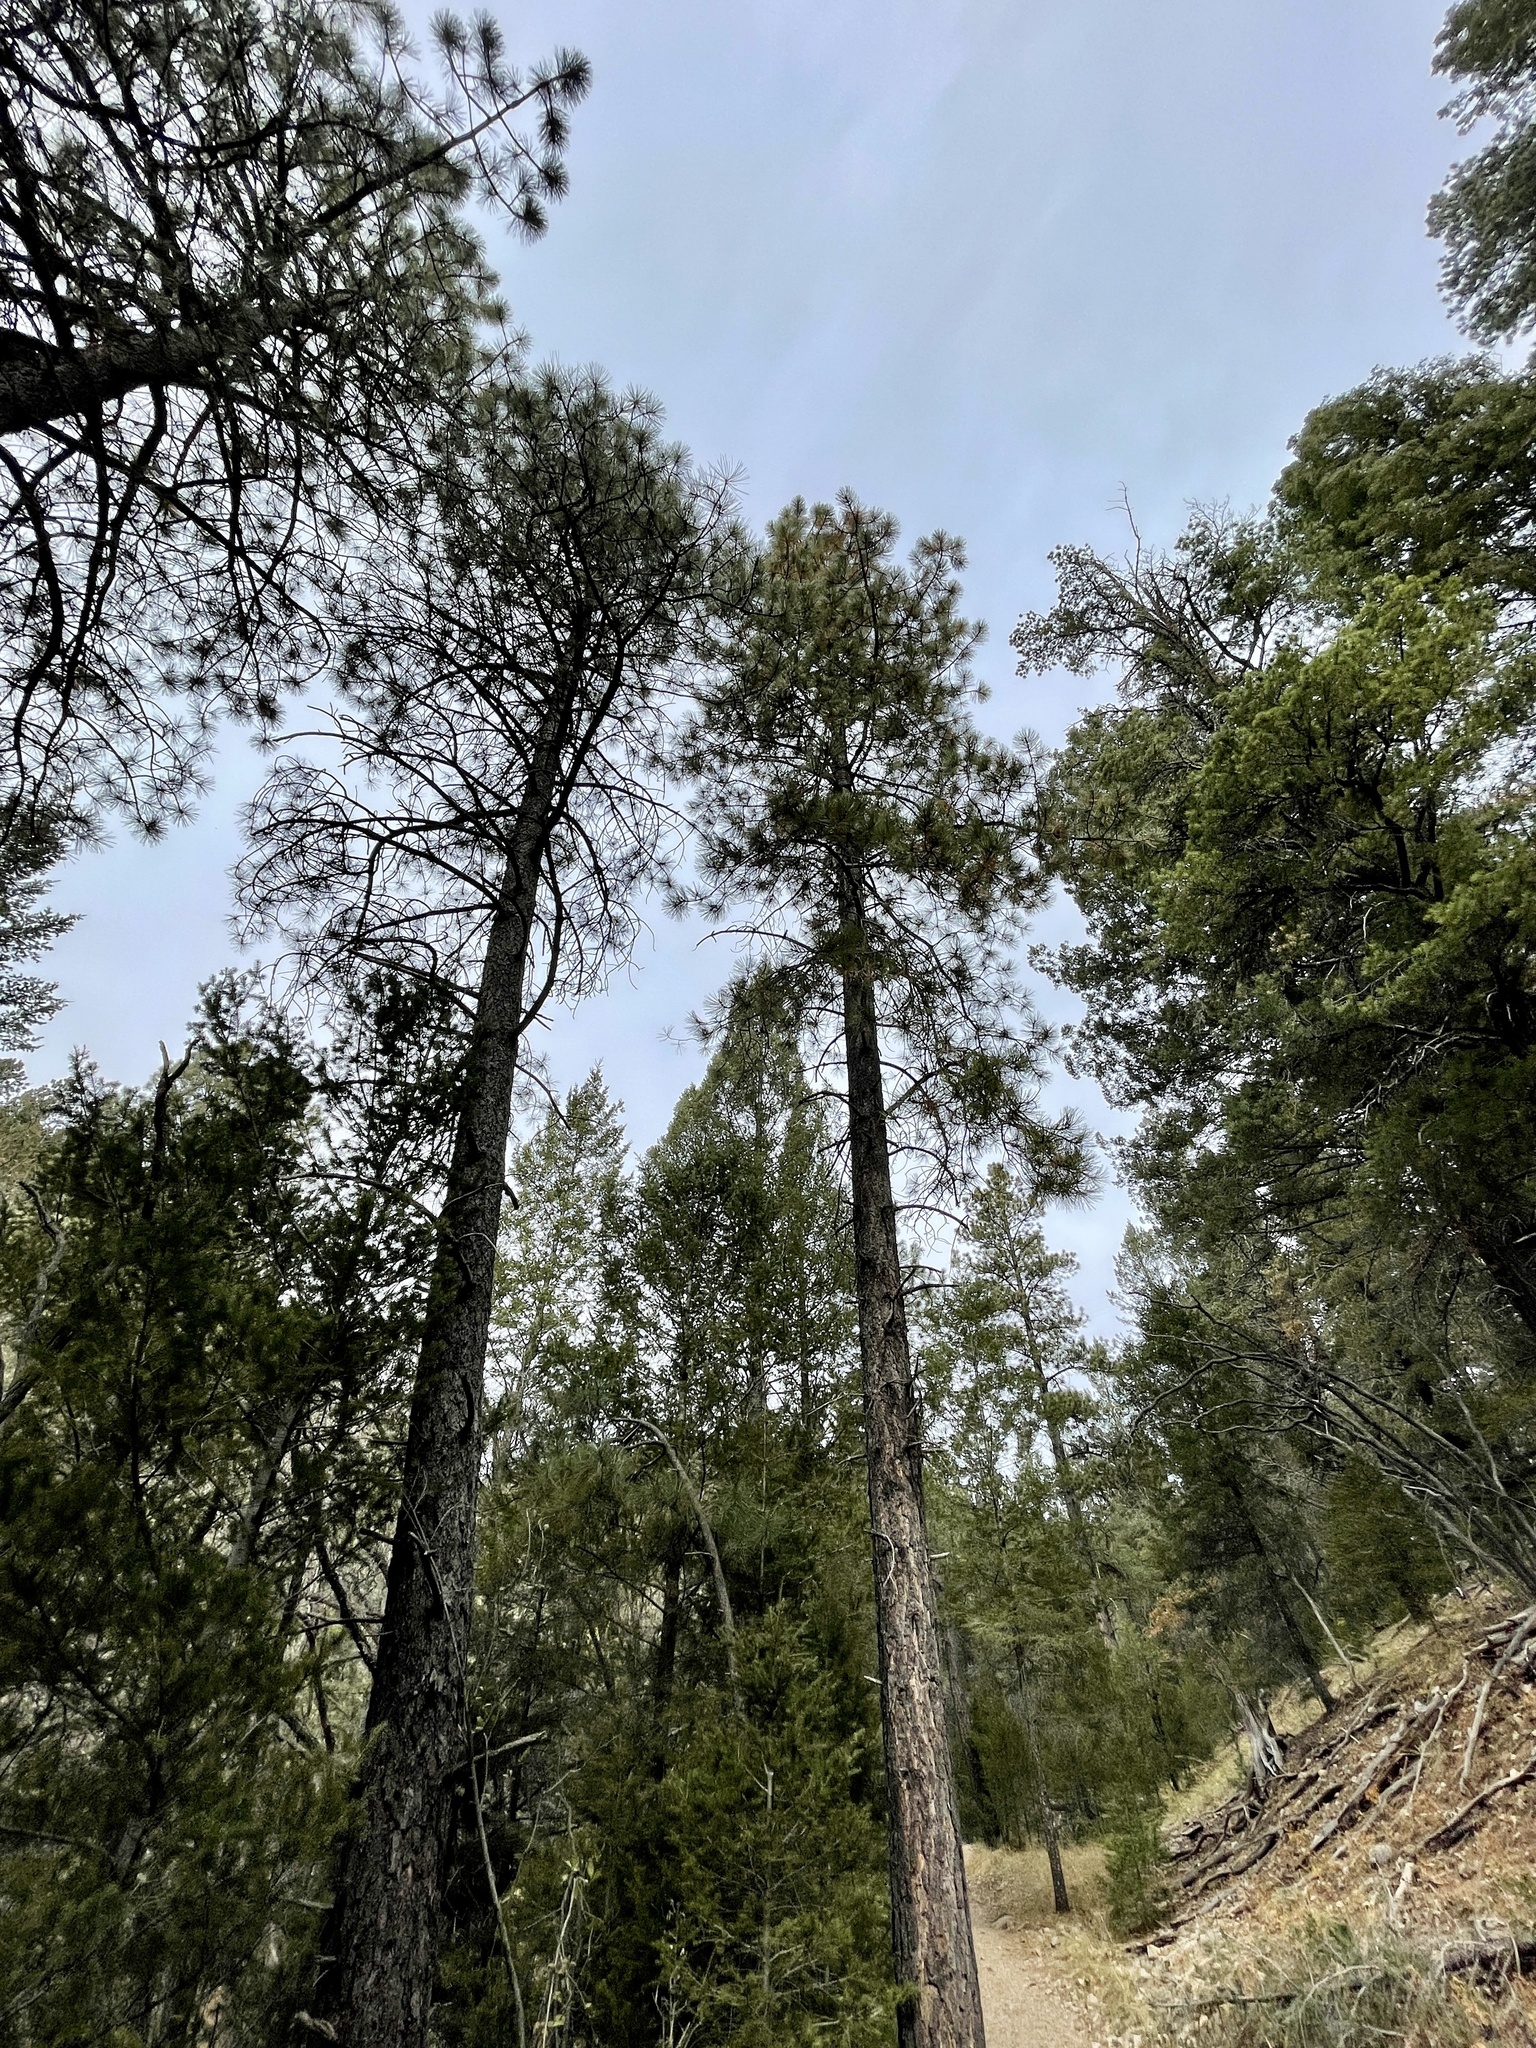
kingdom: Plantae
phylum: Tracheophyta
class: Pinopsida
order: Pinales
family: Pinaceae
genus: Pinus
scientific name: Pinus ponderosa
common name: Western yellow-pine
